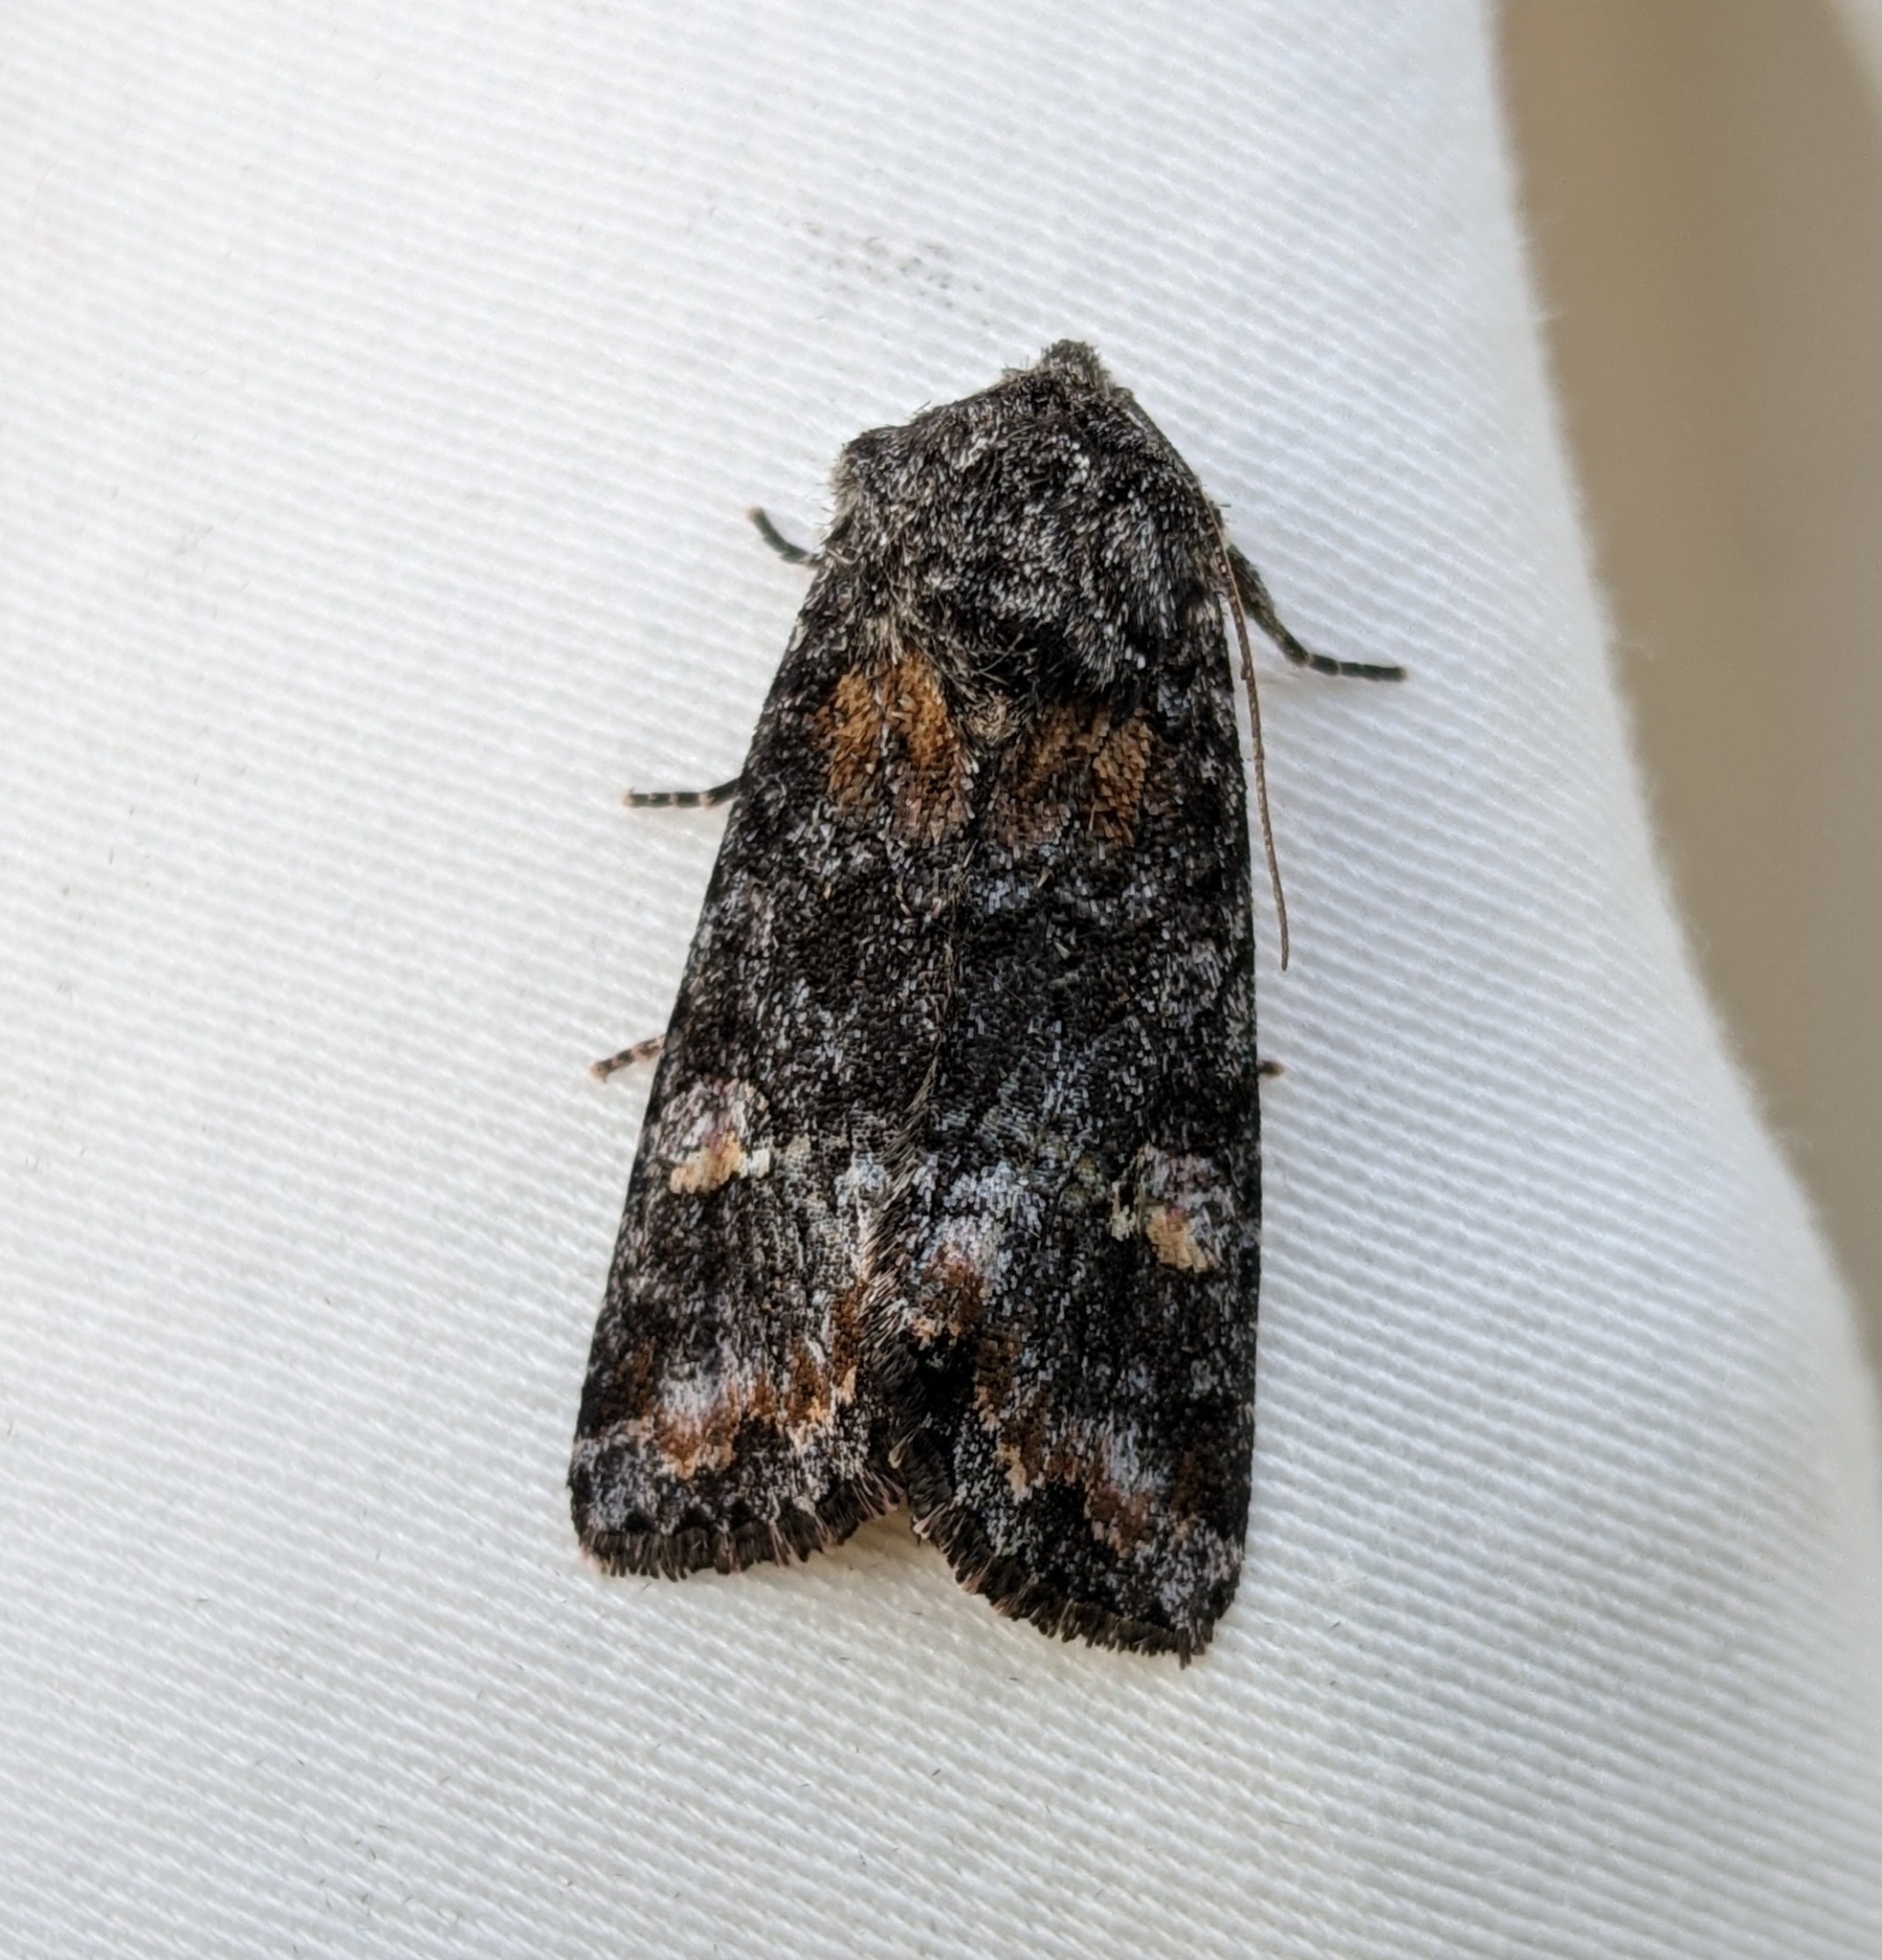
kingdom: Animalia
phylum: Arthropoda
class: Insecta
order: Lepidoptera
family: Noctuidae
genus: Spiramater
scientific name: Spiramater lutra
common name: Otter spiramater moth
